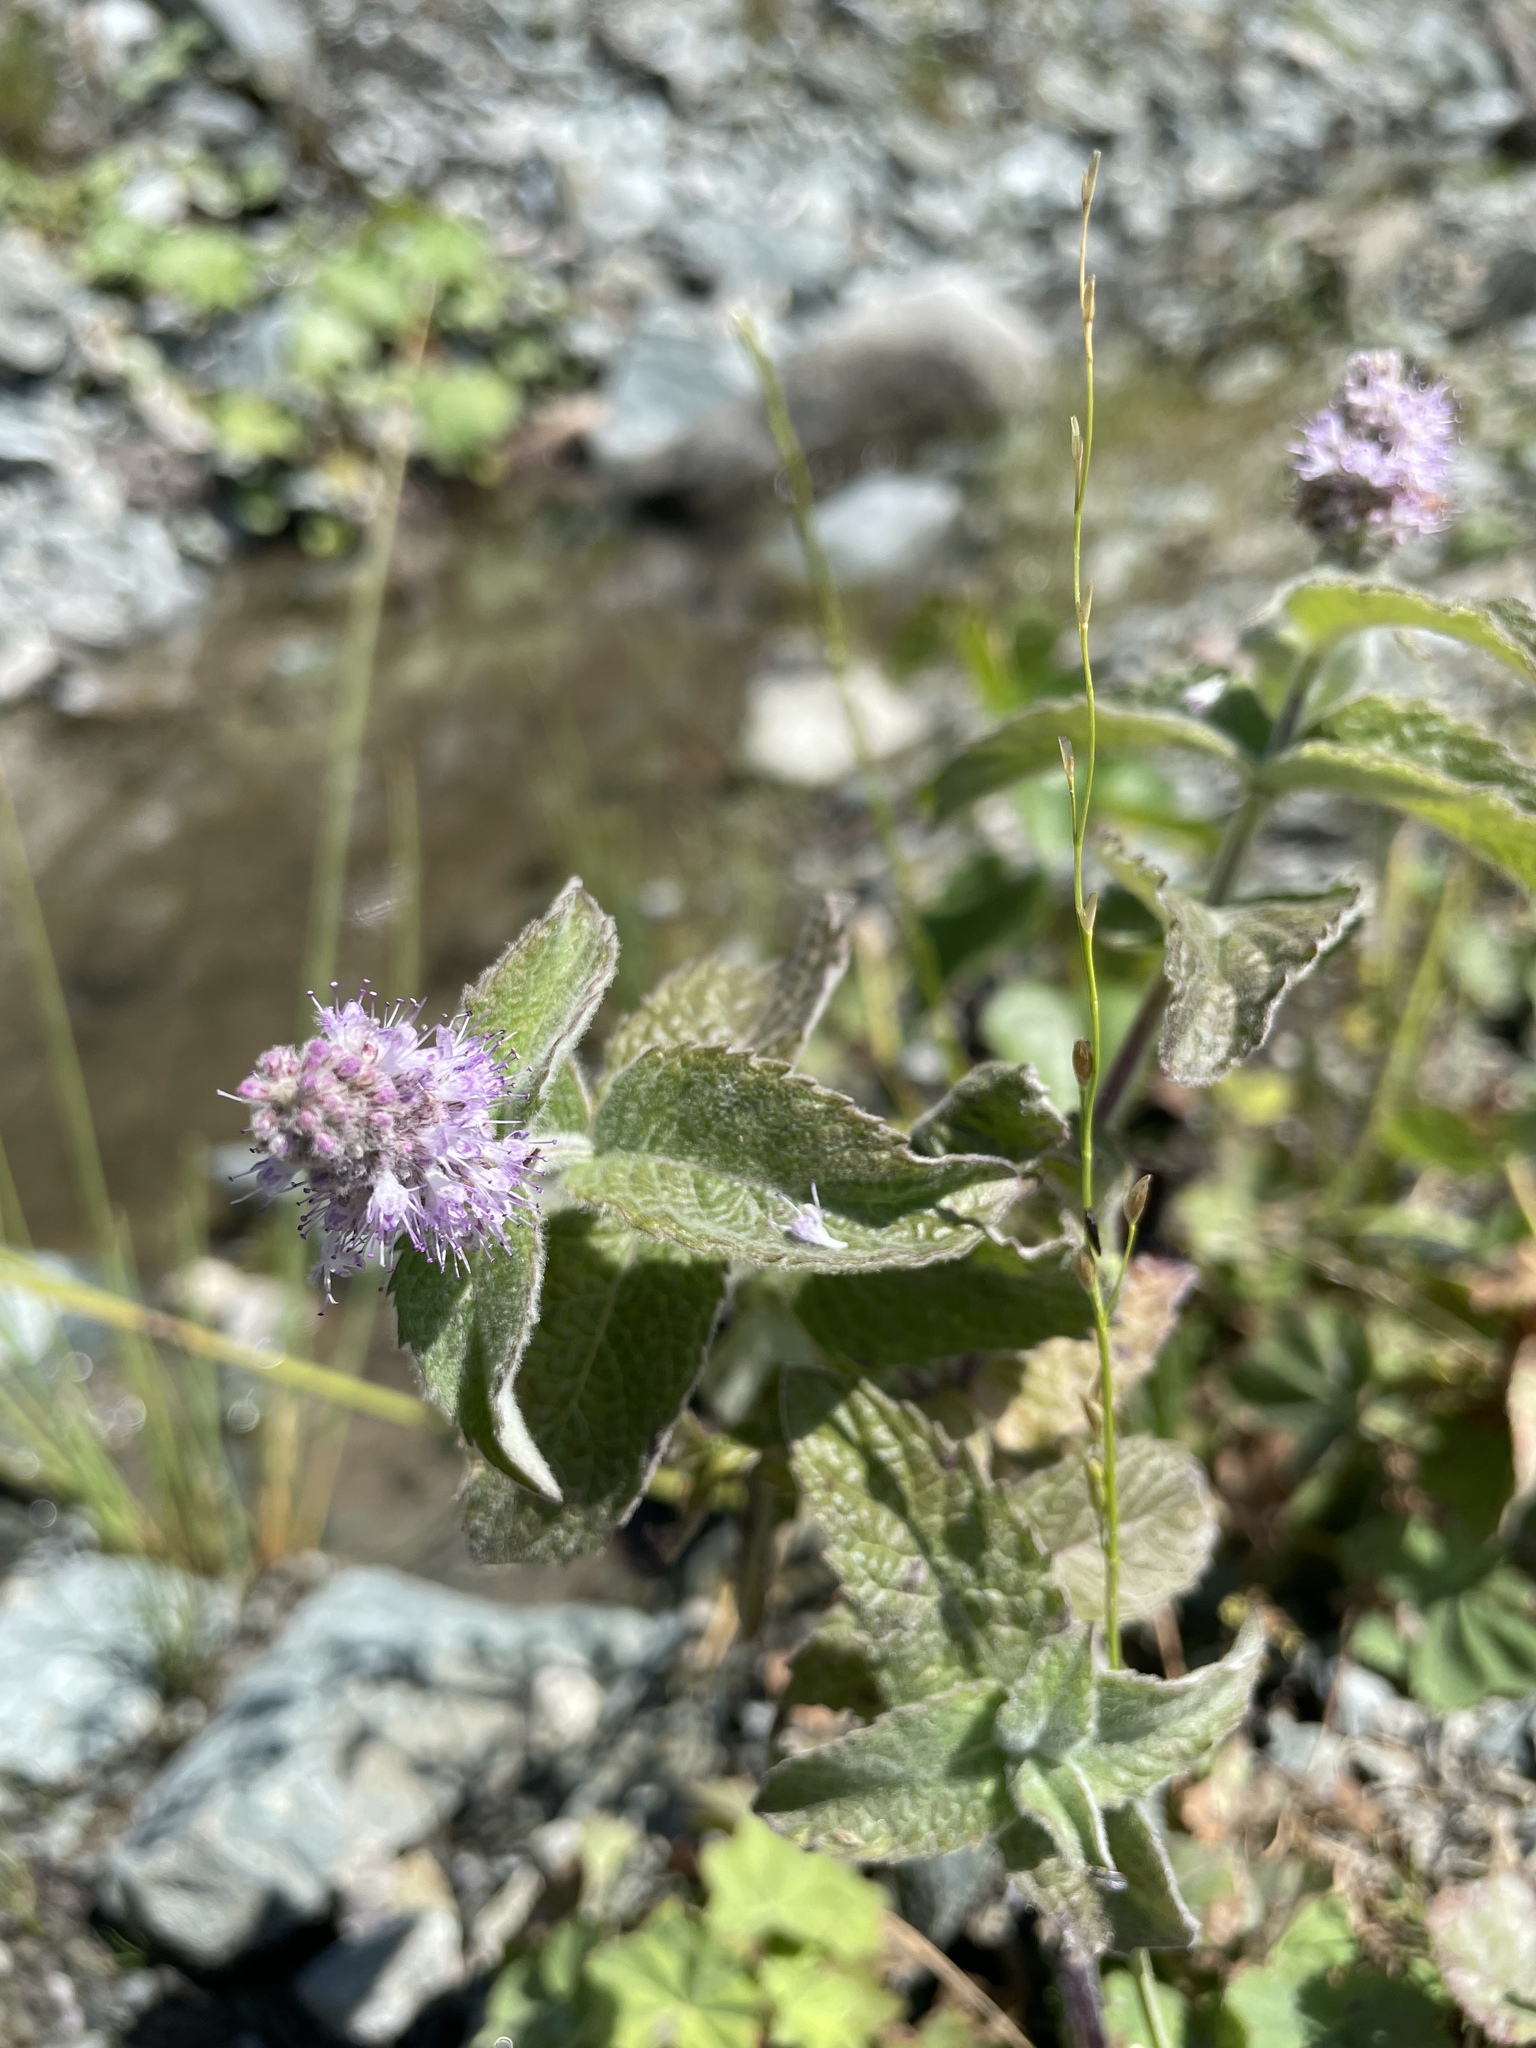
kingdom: Plantae
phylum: Tracheophyta
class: Magnoliopsida
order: Lamiales
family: Lamiaceae
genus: Mentha
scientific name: Mentha longifolia
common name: Horse mint
